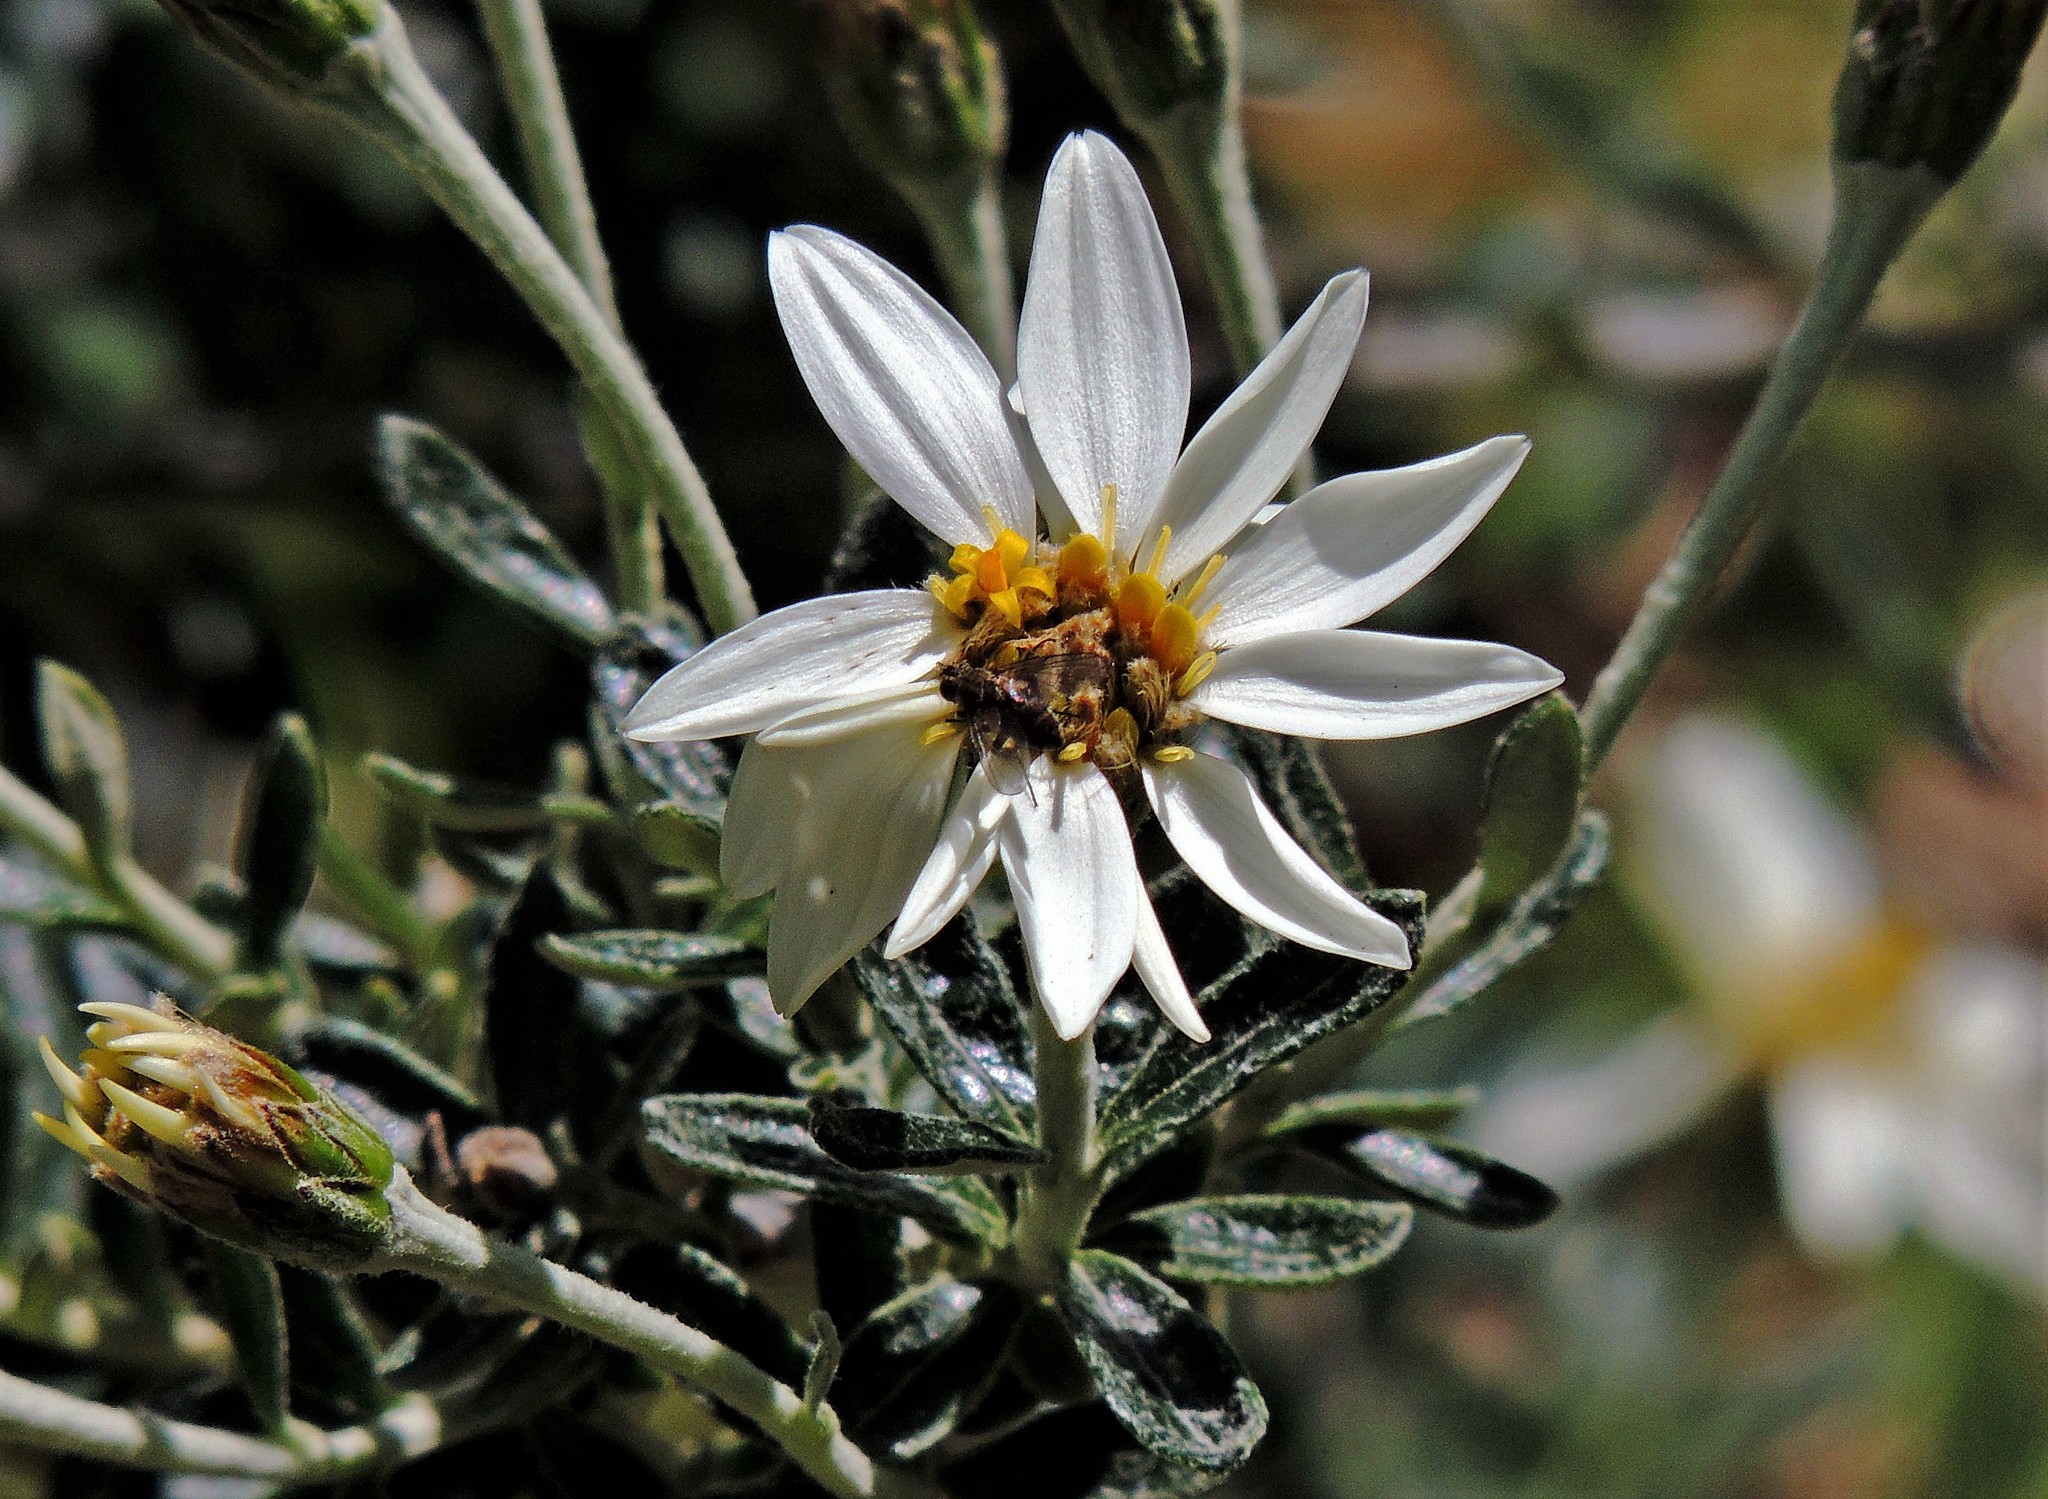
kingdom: Plantae
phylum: Tracheophyta
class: Magnoliopsida
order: Asterales
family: Asteraceae
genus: Chiliotrichum
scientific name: Chiliotrichum diffusum
